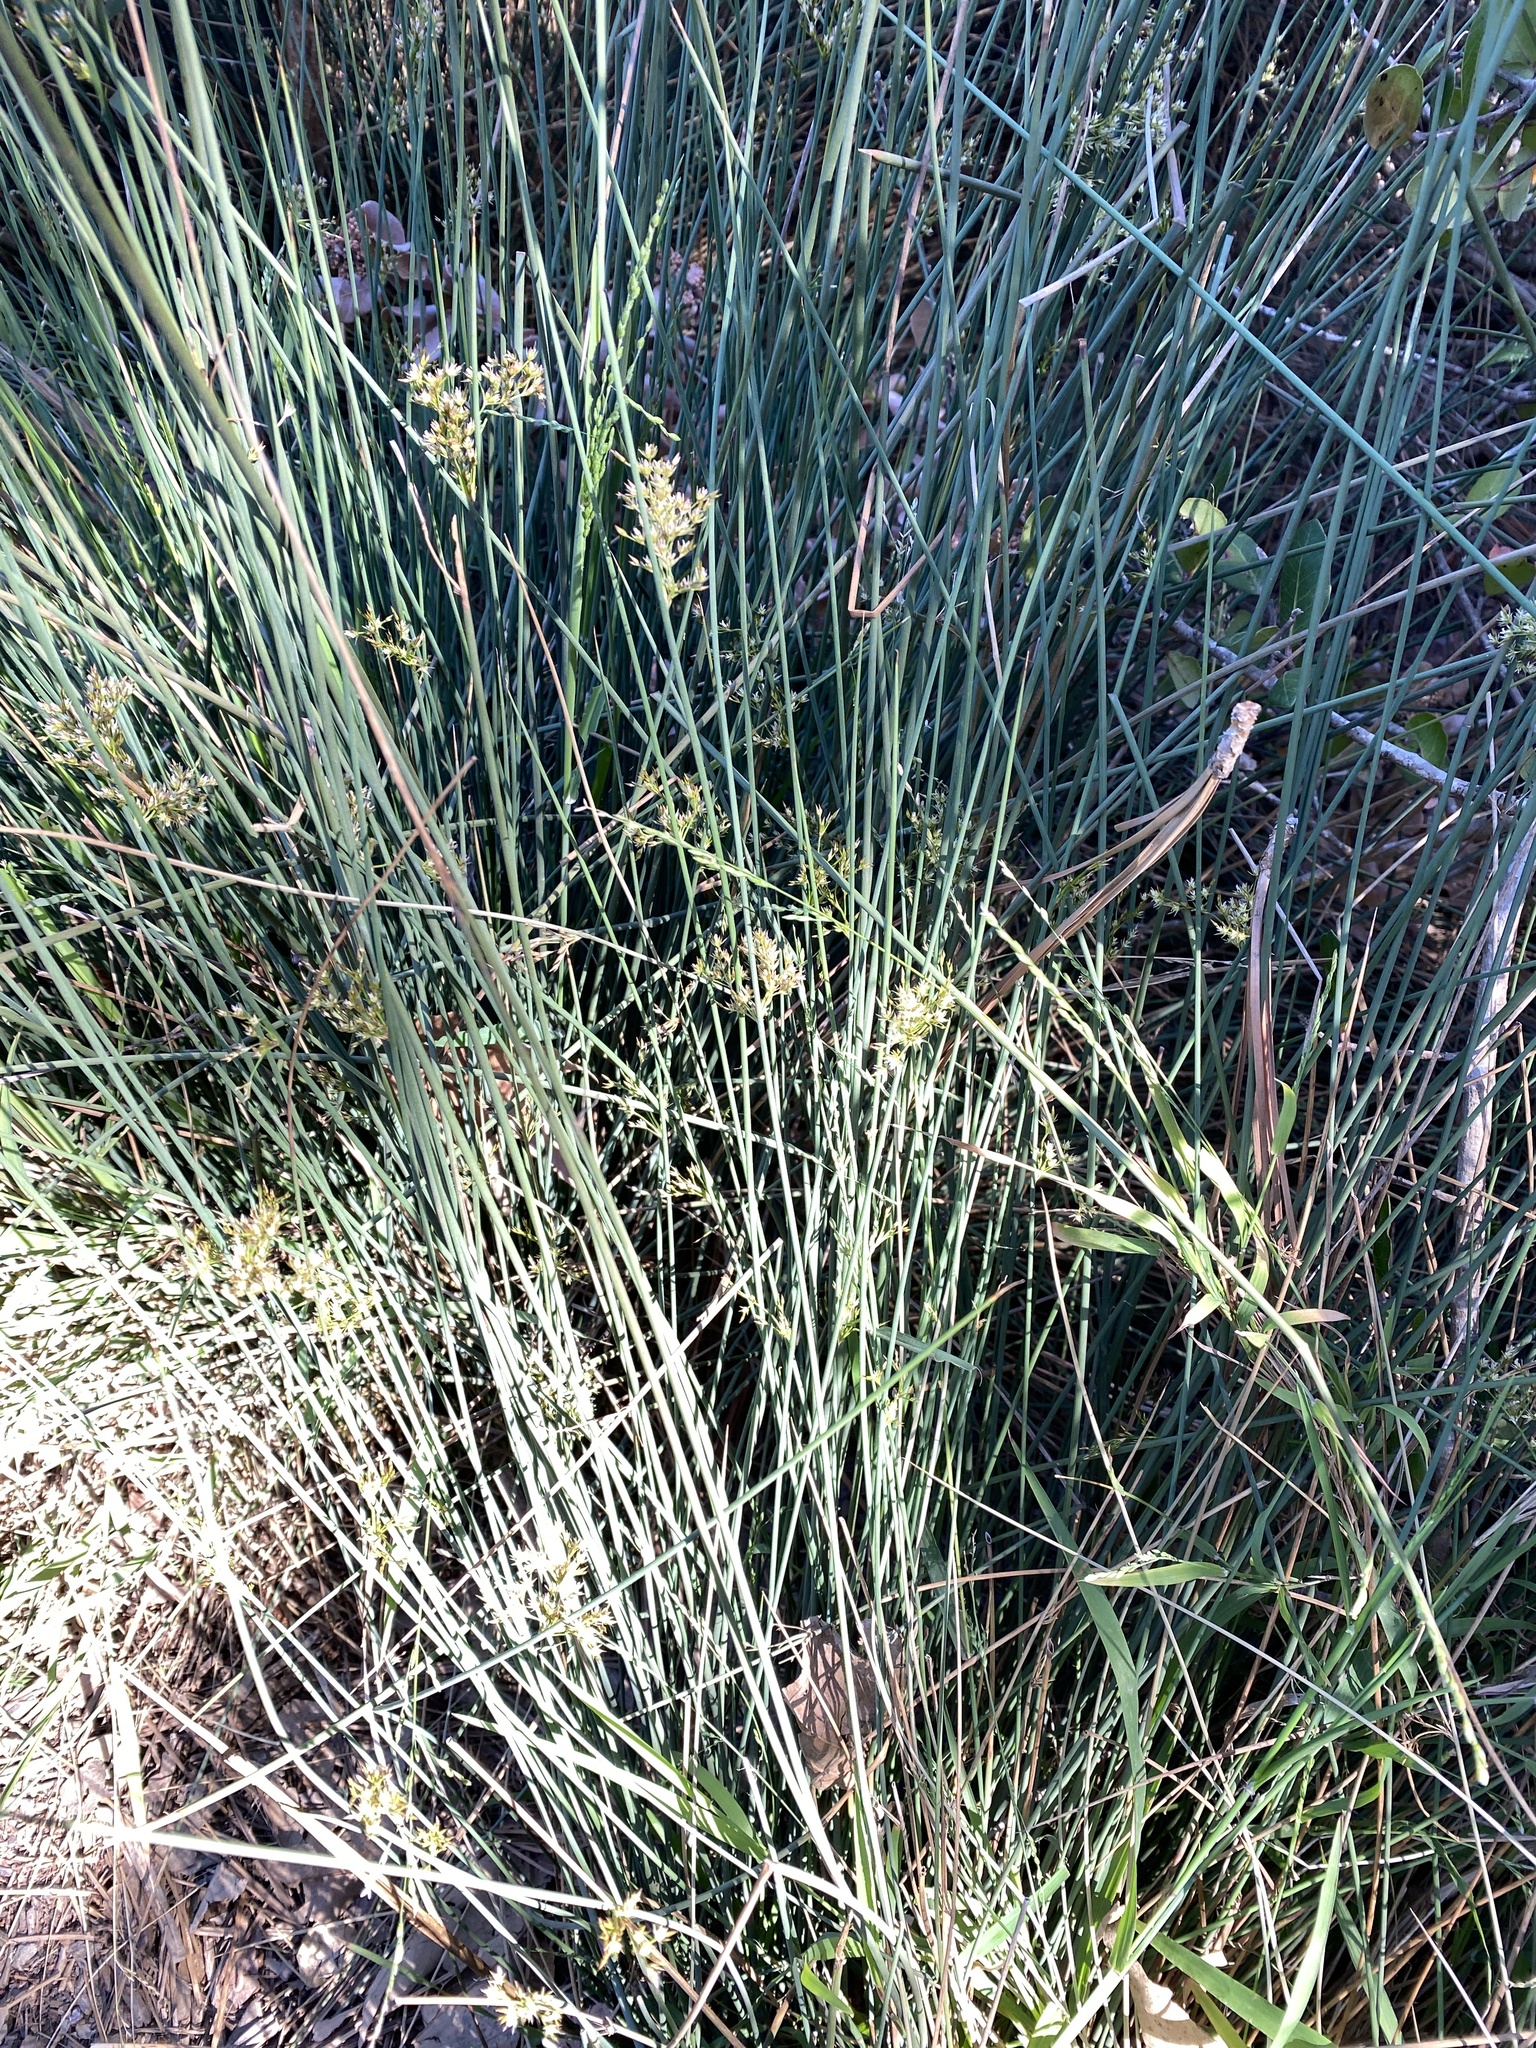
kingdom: Plantae
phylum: Tracheophyta
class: Liliopsida
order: Poales
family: Juncaceae
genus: Juncus
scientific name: Juncus patens
